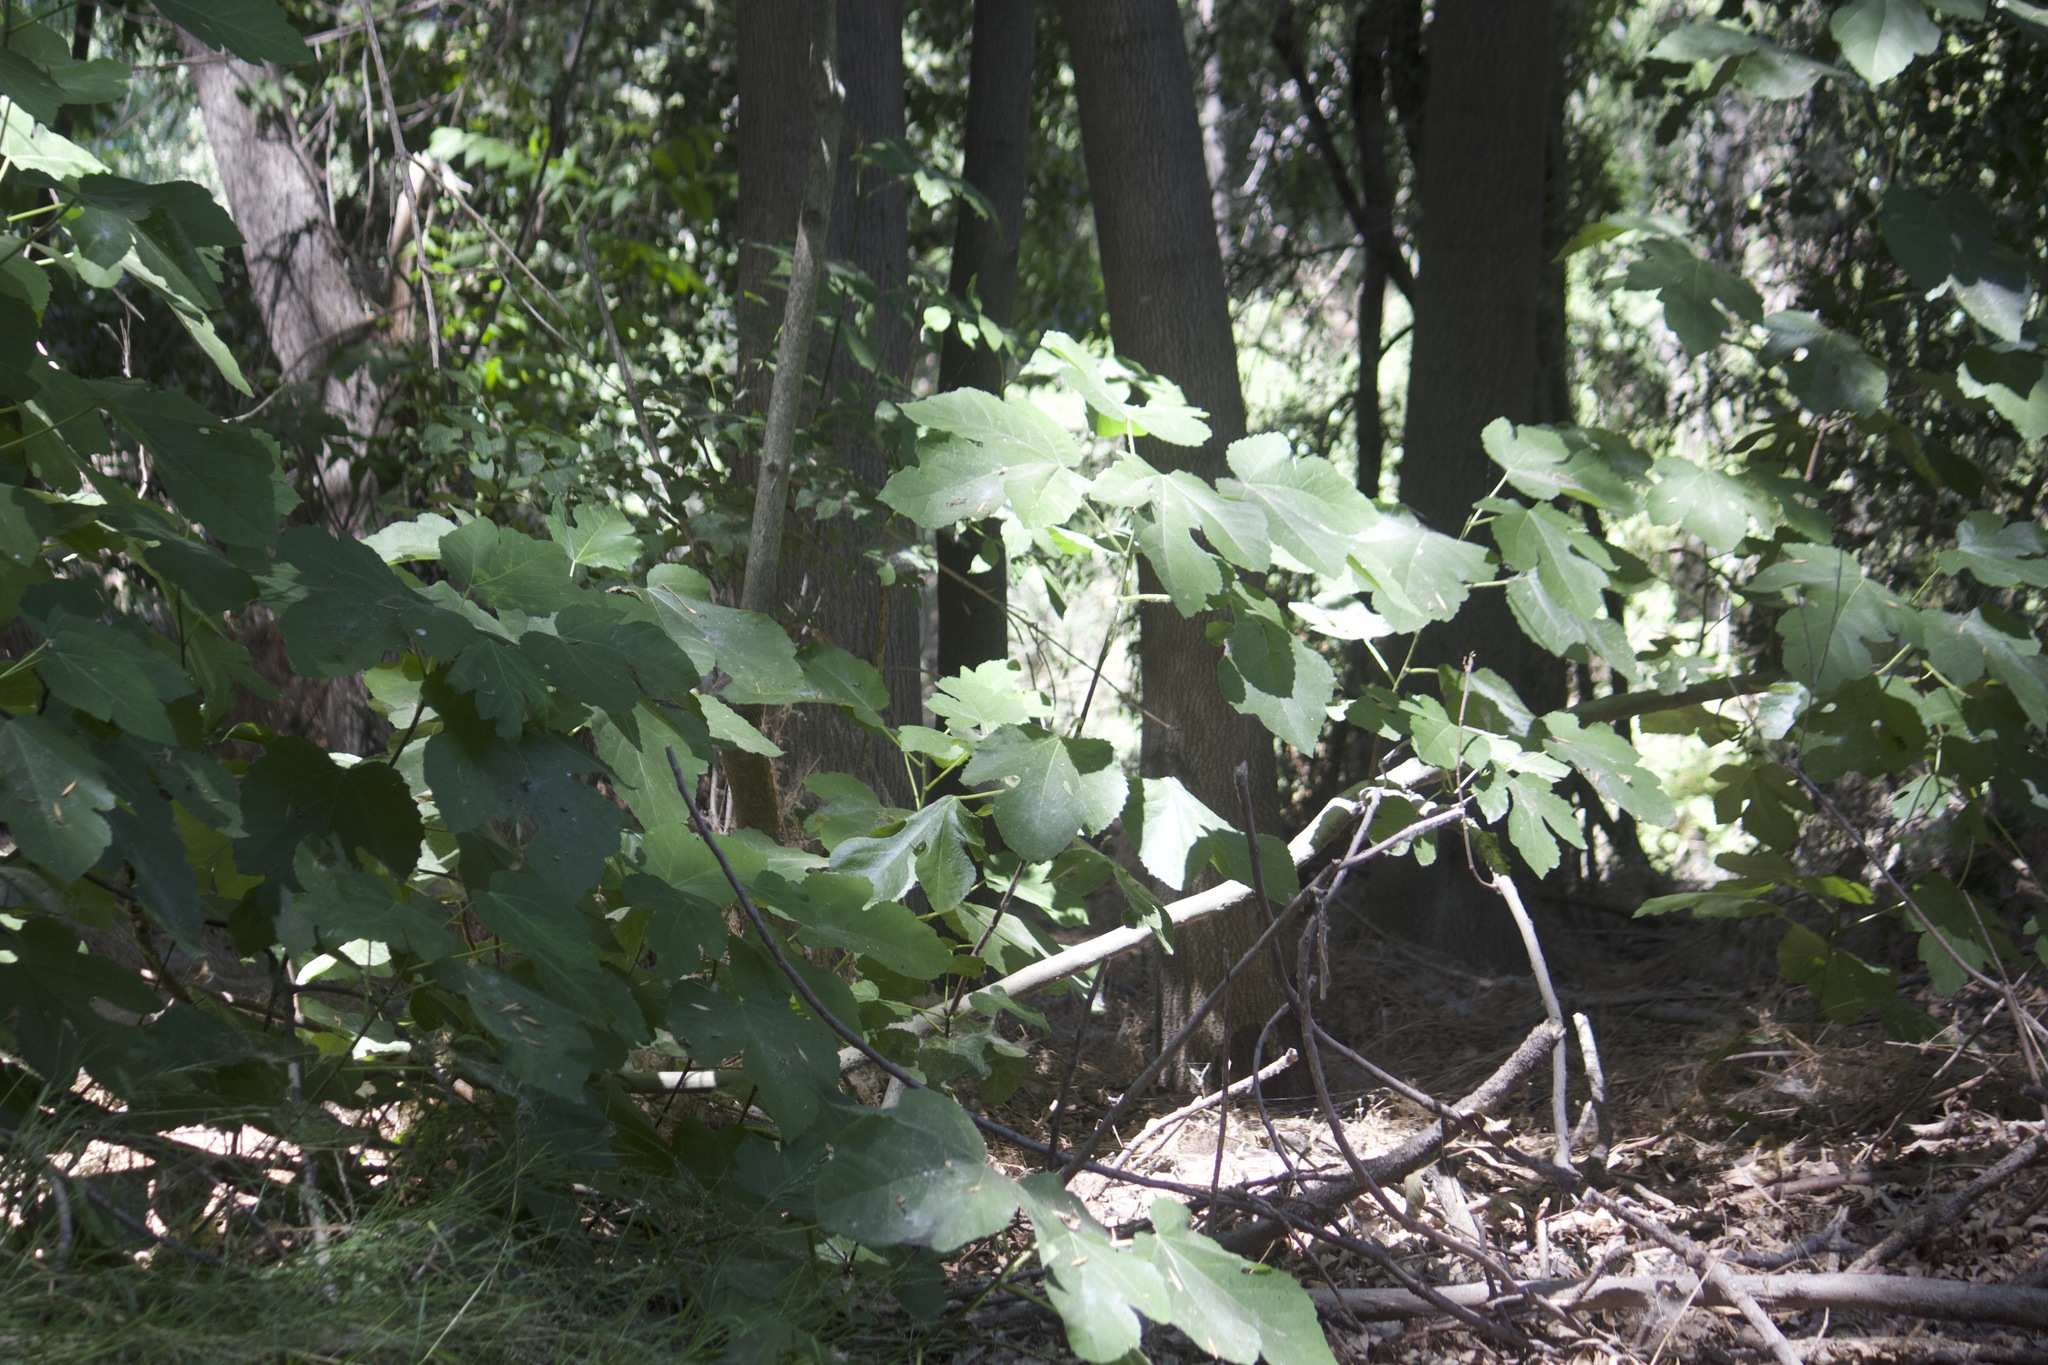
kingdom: Plantae
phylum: Tracheophyta
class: Magnoliopsida
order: Rosales
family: Moraceae
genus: Ficus
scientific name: Ficus carica
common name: Fig
